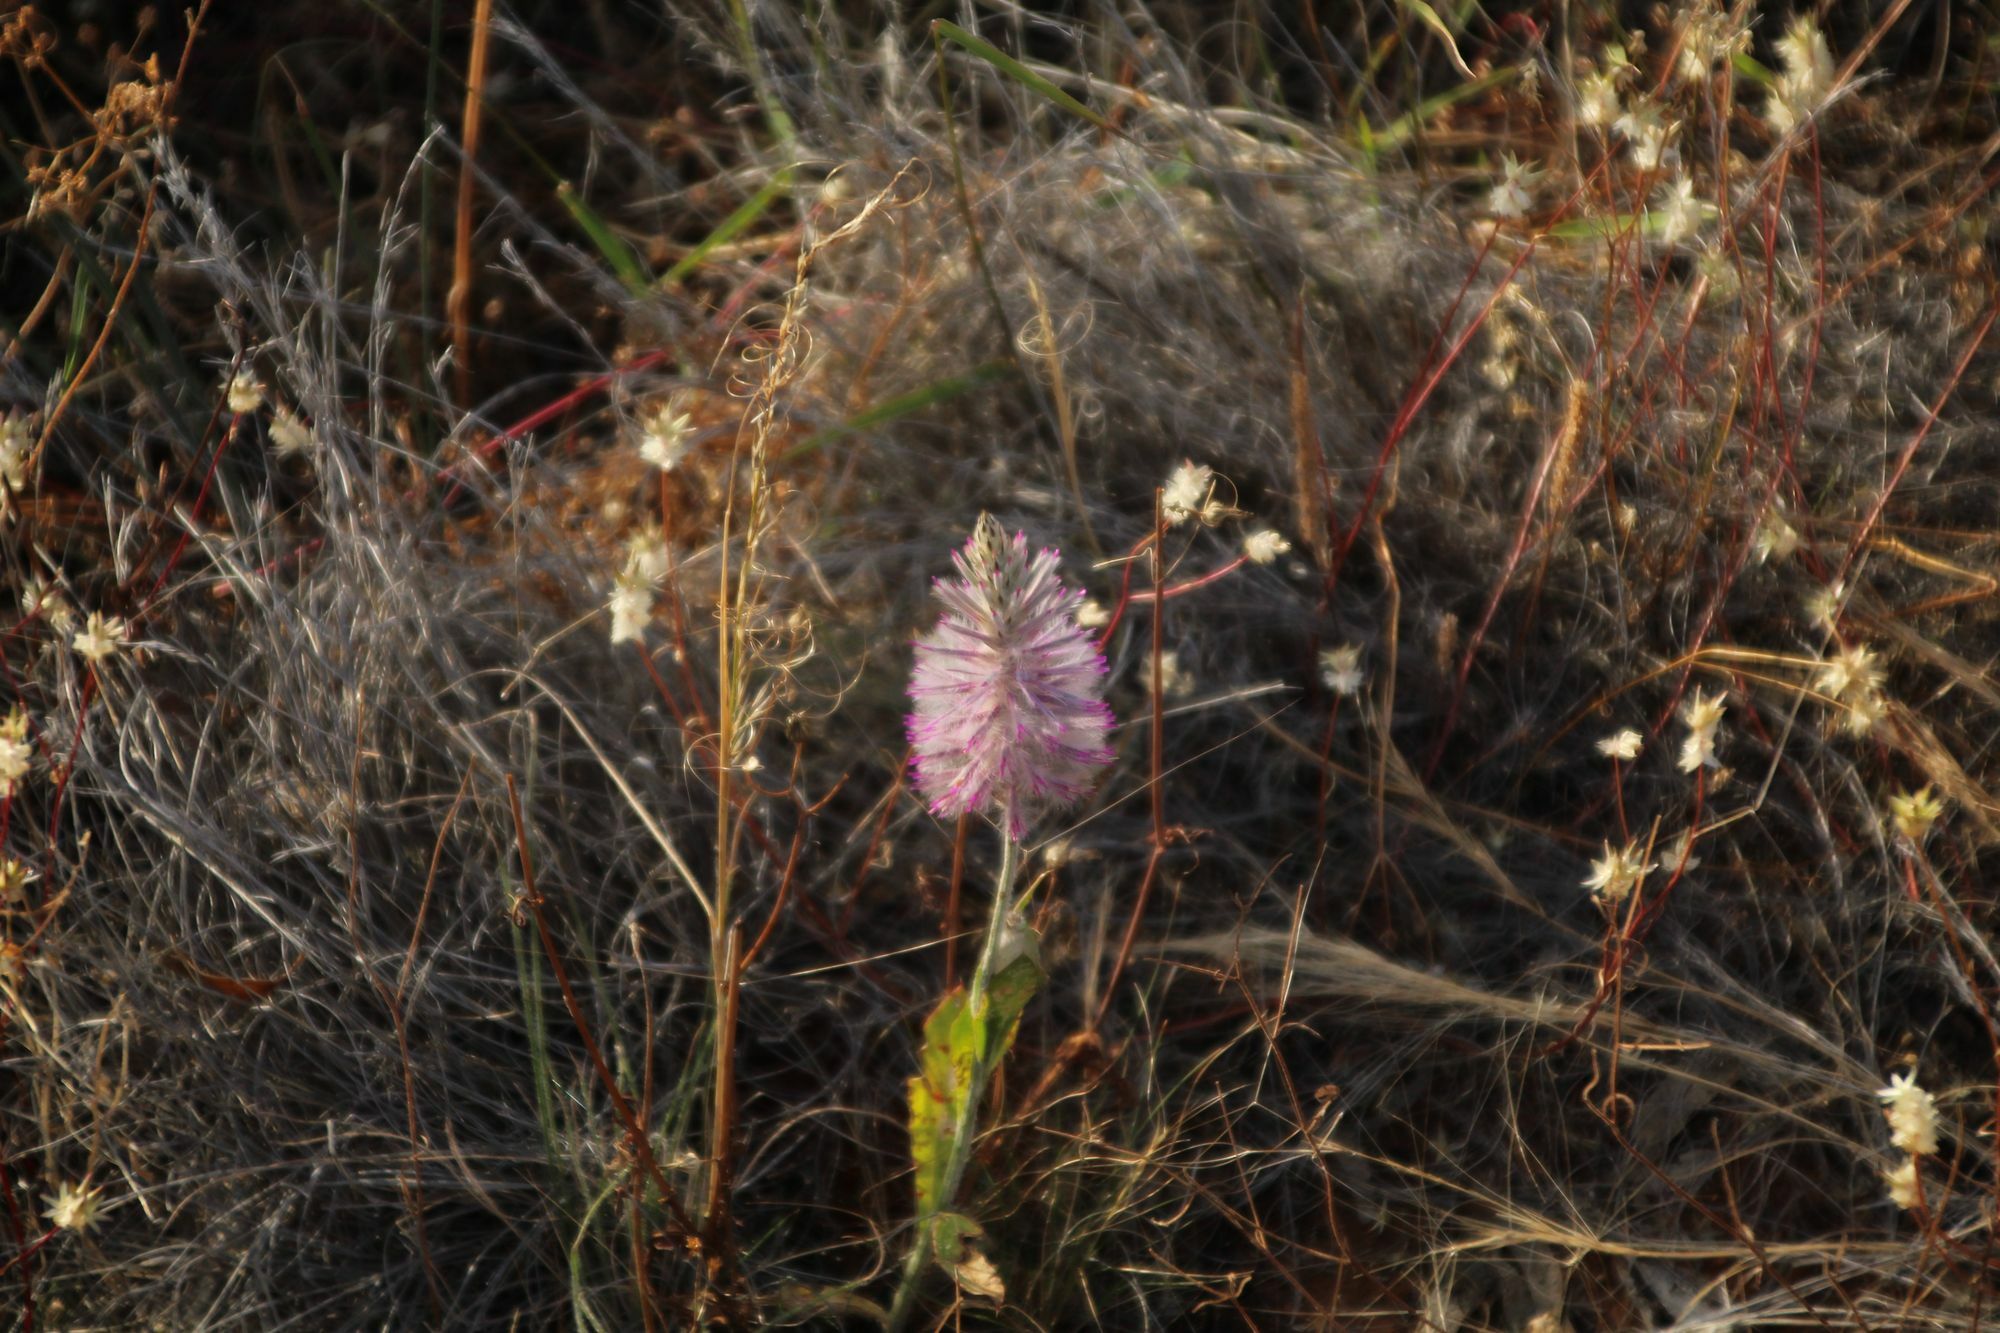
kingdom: Plantae
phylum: Tracheophyta
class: Magnoliopsida
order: Caryophyllales
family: Amaranthaceae
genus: Ptilotus
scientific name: Ptilotus exaltatus
